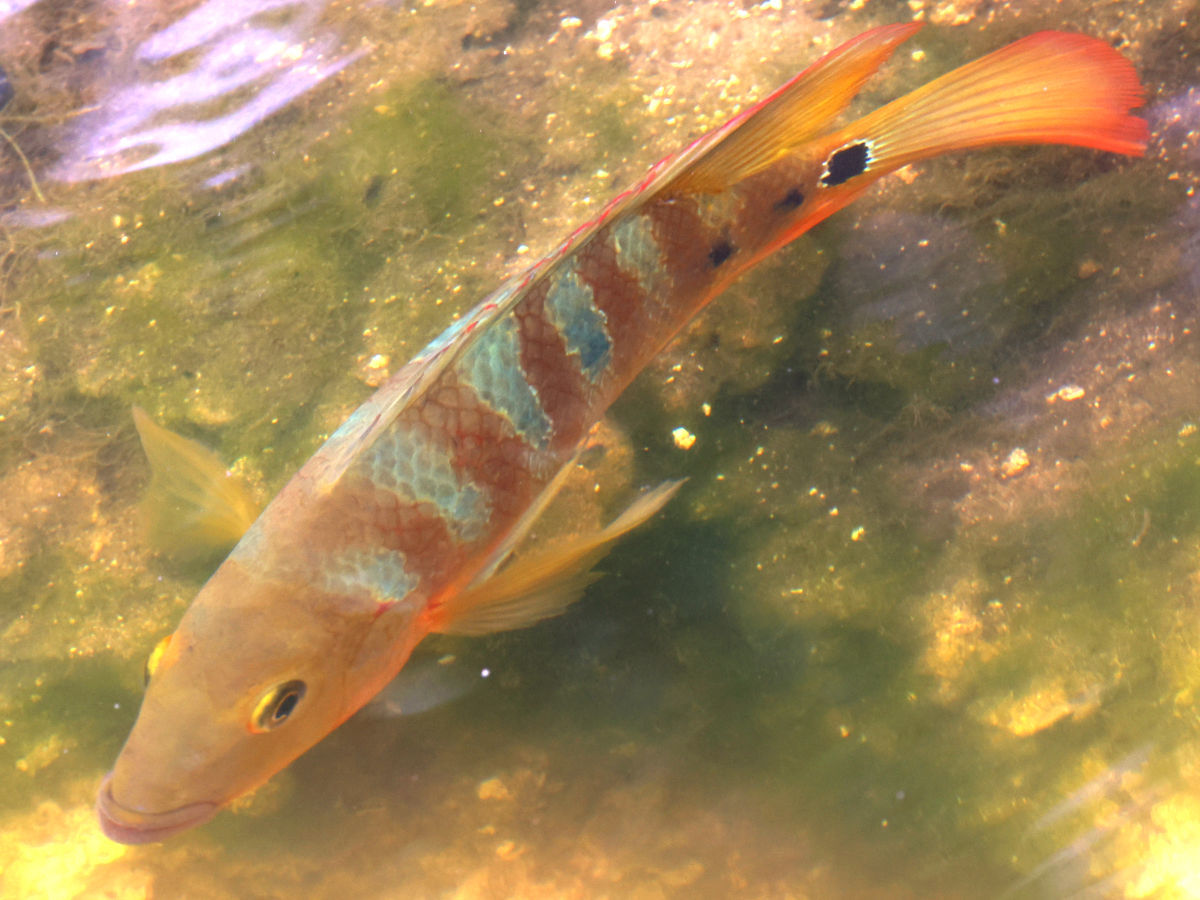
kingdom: Animalia
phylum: Chordata
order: Perciformes
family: Cichlidae
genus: Mayaheros
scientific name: Mayaheros urophthalmus
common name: Mayan cichlid
